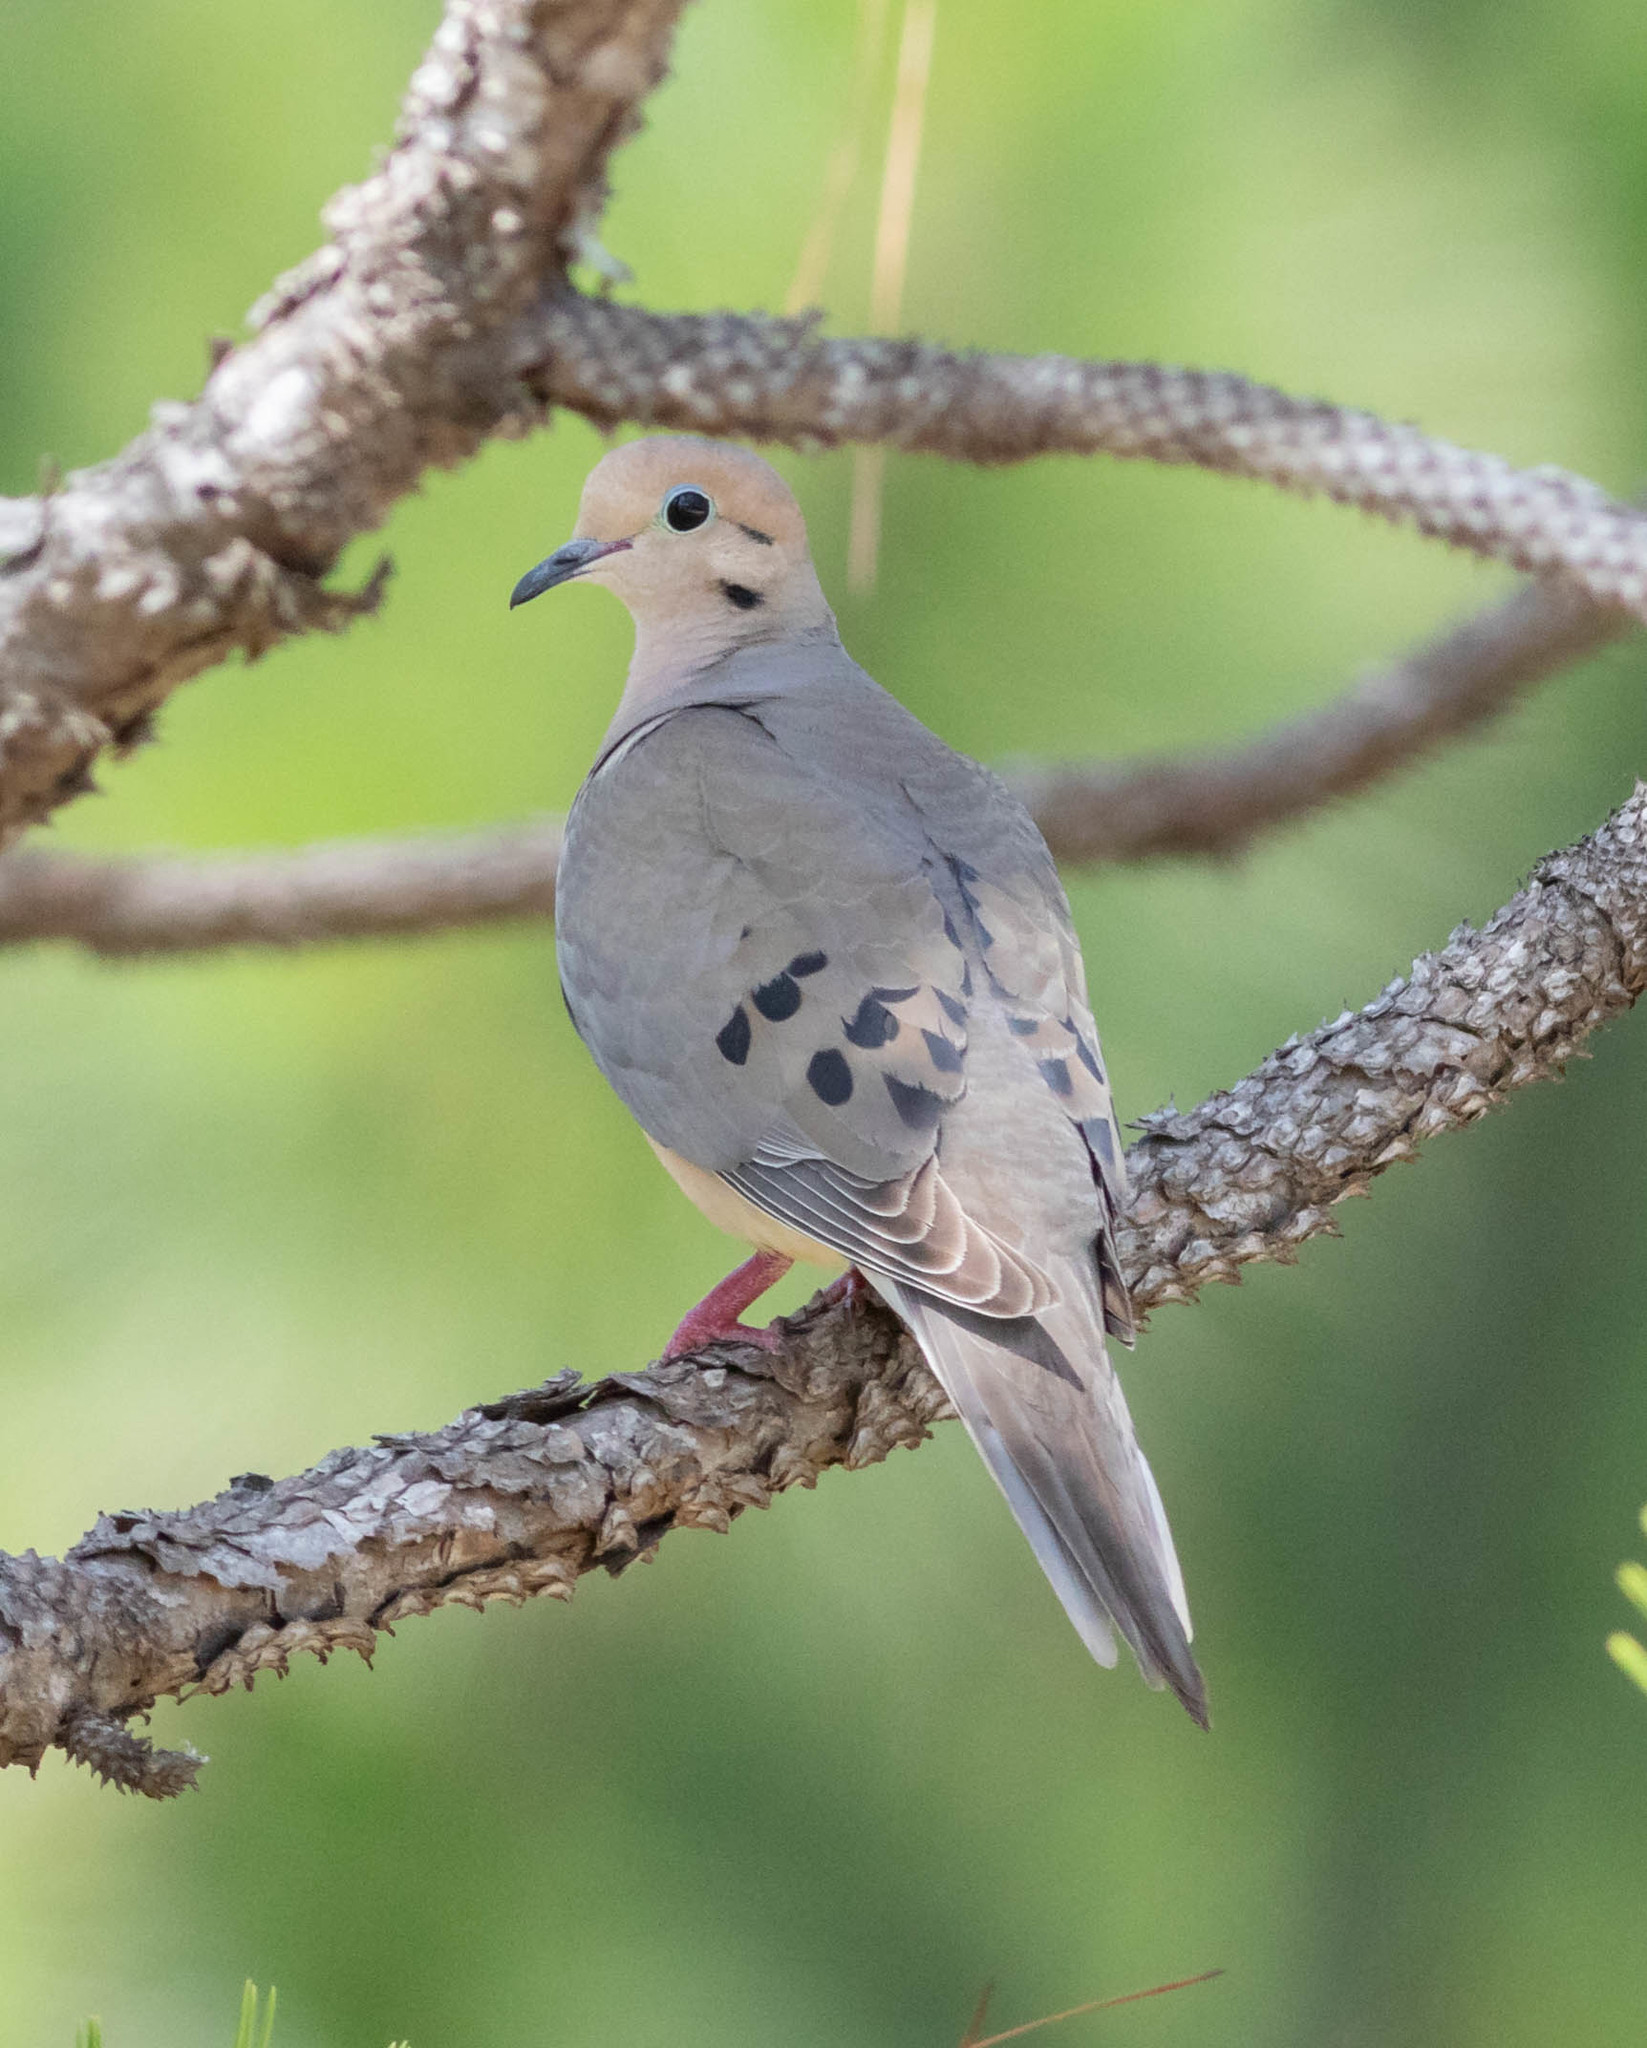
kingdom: Animalia
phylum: Chordata
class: Aves
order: Columbiformes
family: Columbidae
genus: Zenaida
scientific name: Zenaida macroura
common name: Mourning dove
